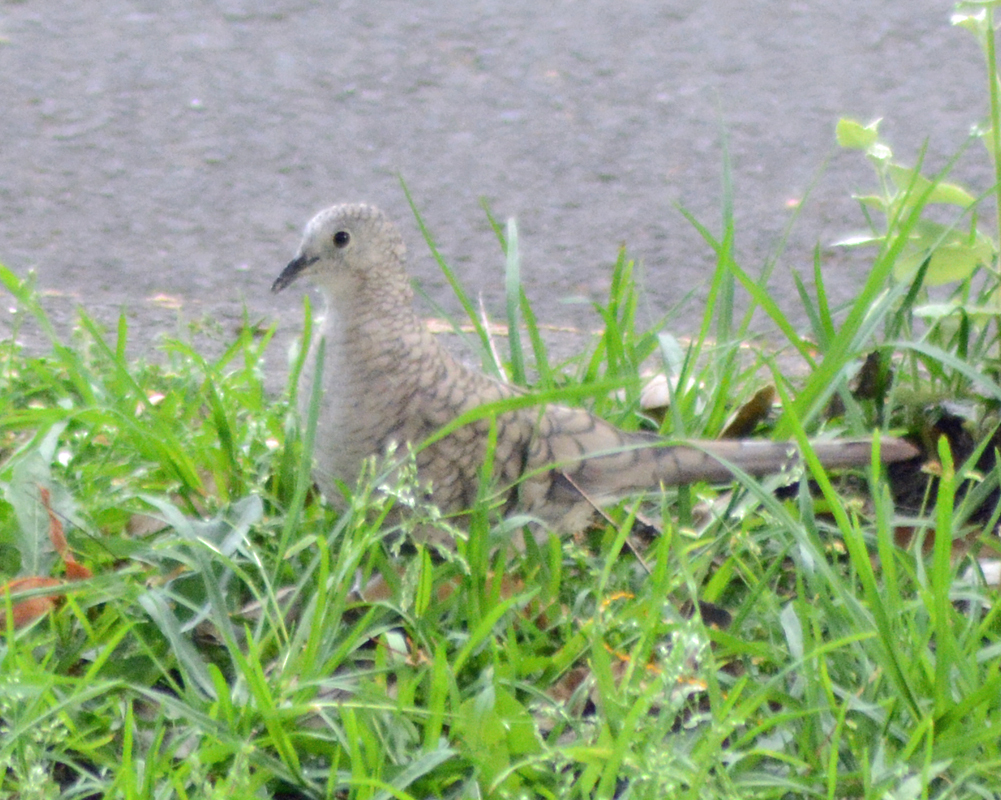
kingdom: Animalia
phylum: Chordata
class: Aves
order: Columbiformes
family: Columbidae
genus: Columbina
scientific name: Columbina inca
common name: Inca dove
